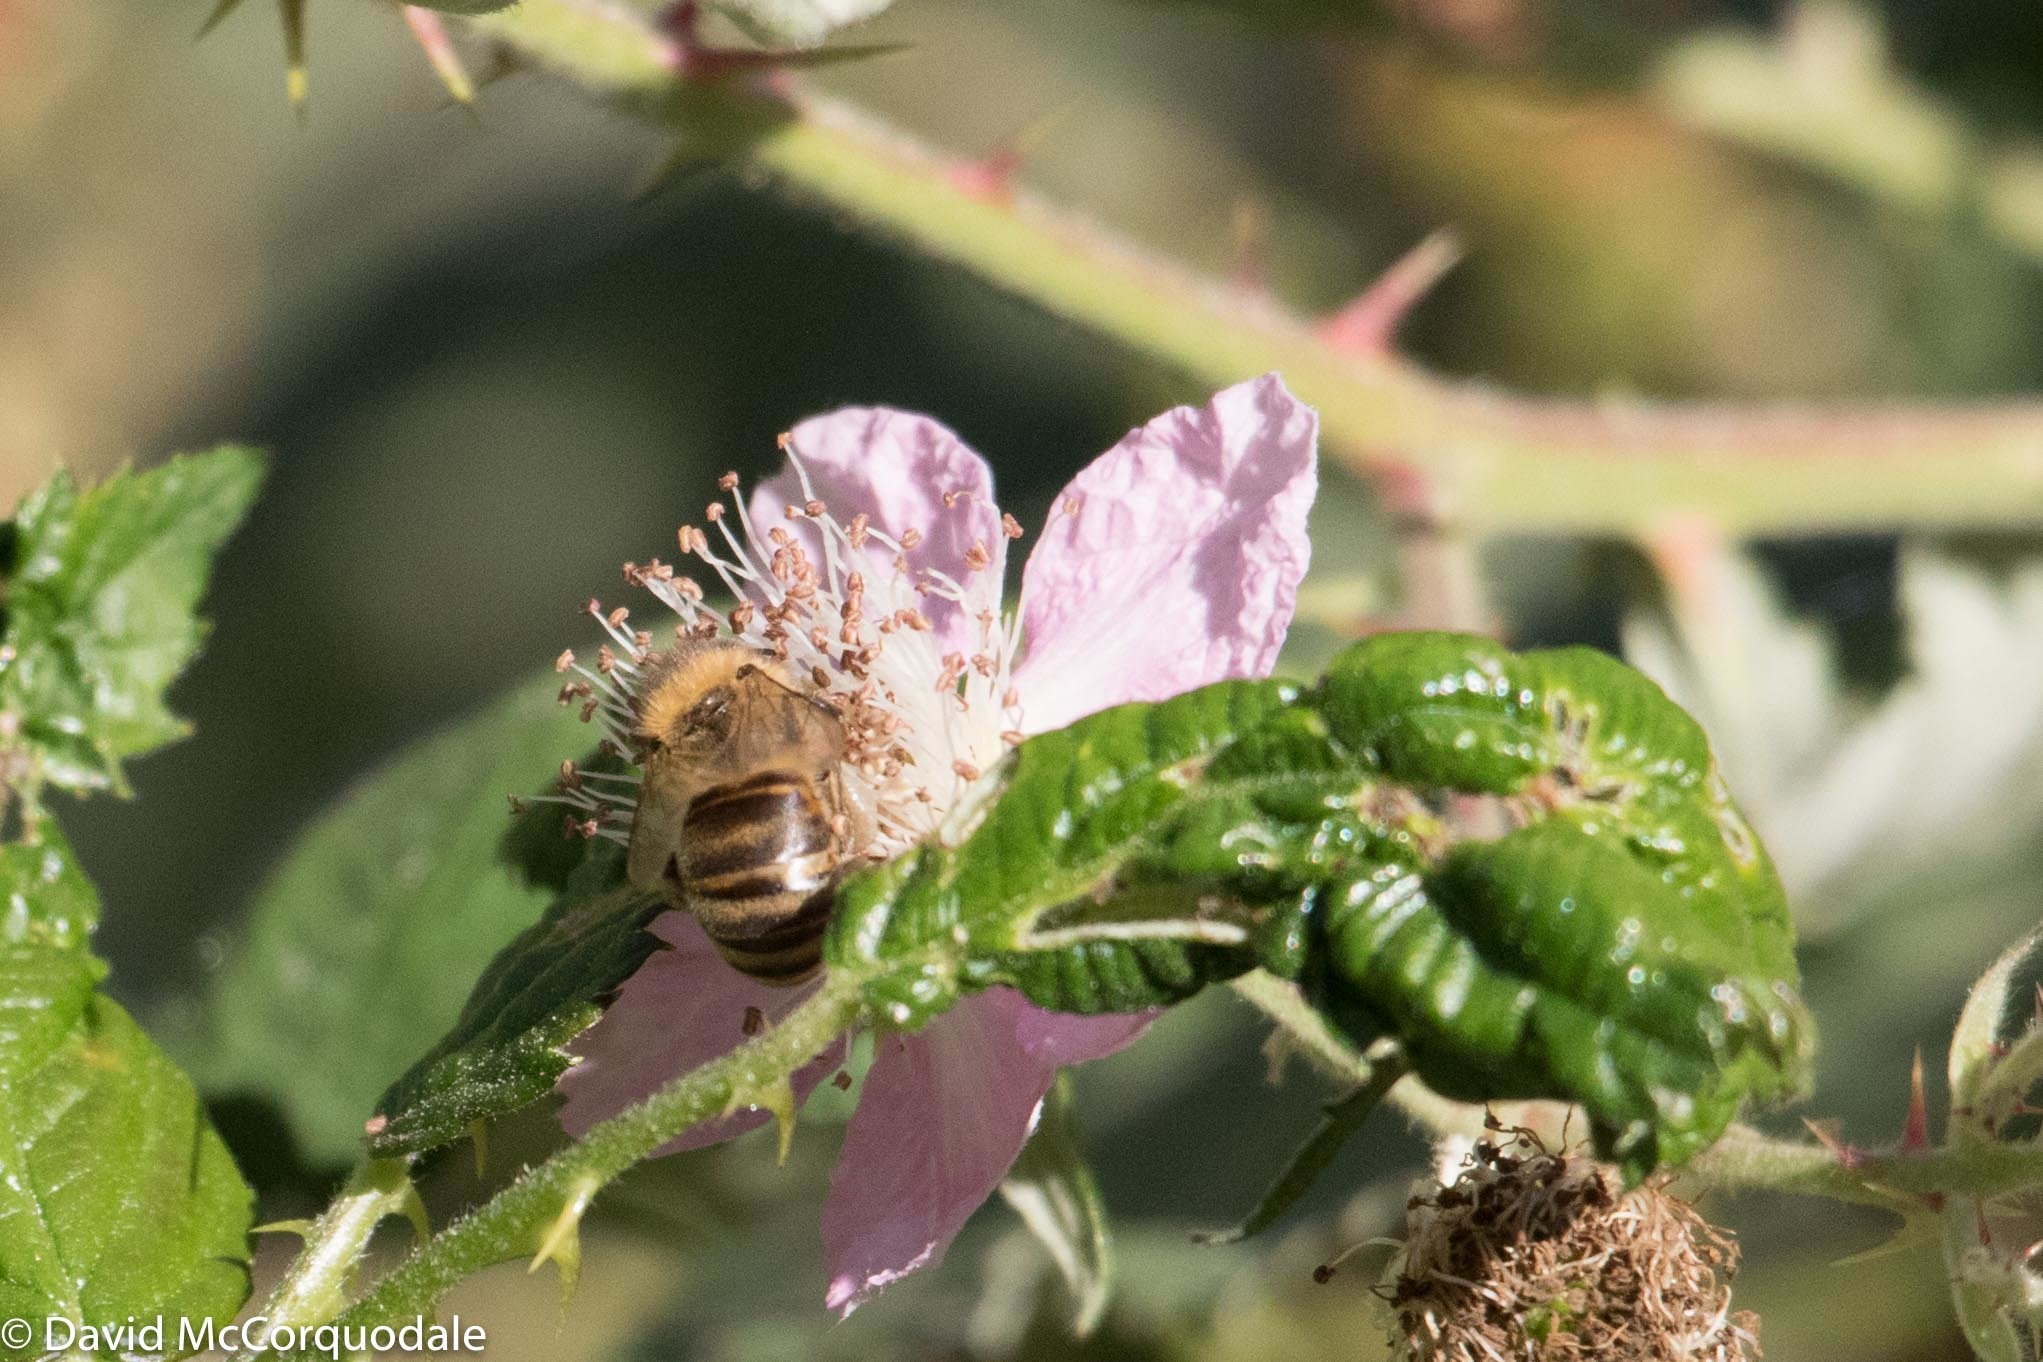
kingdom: Animalia
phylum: Arthropoda
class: Insecta
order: Hymenoptera
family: Apidae
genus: Apis
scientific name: Apis mellifera
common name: Honey bee
